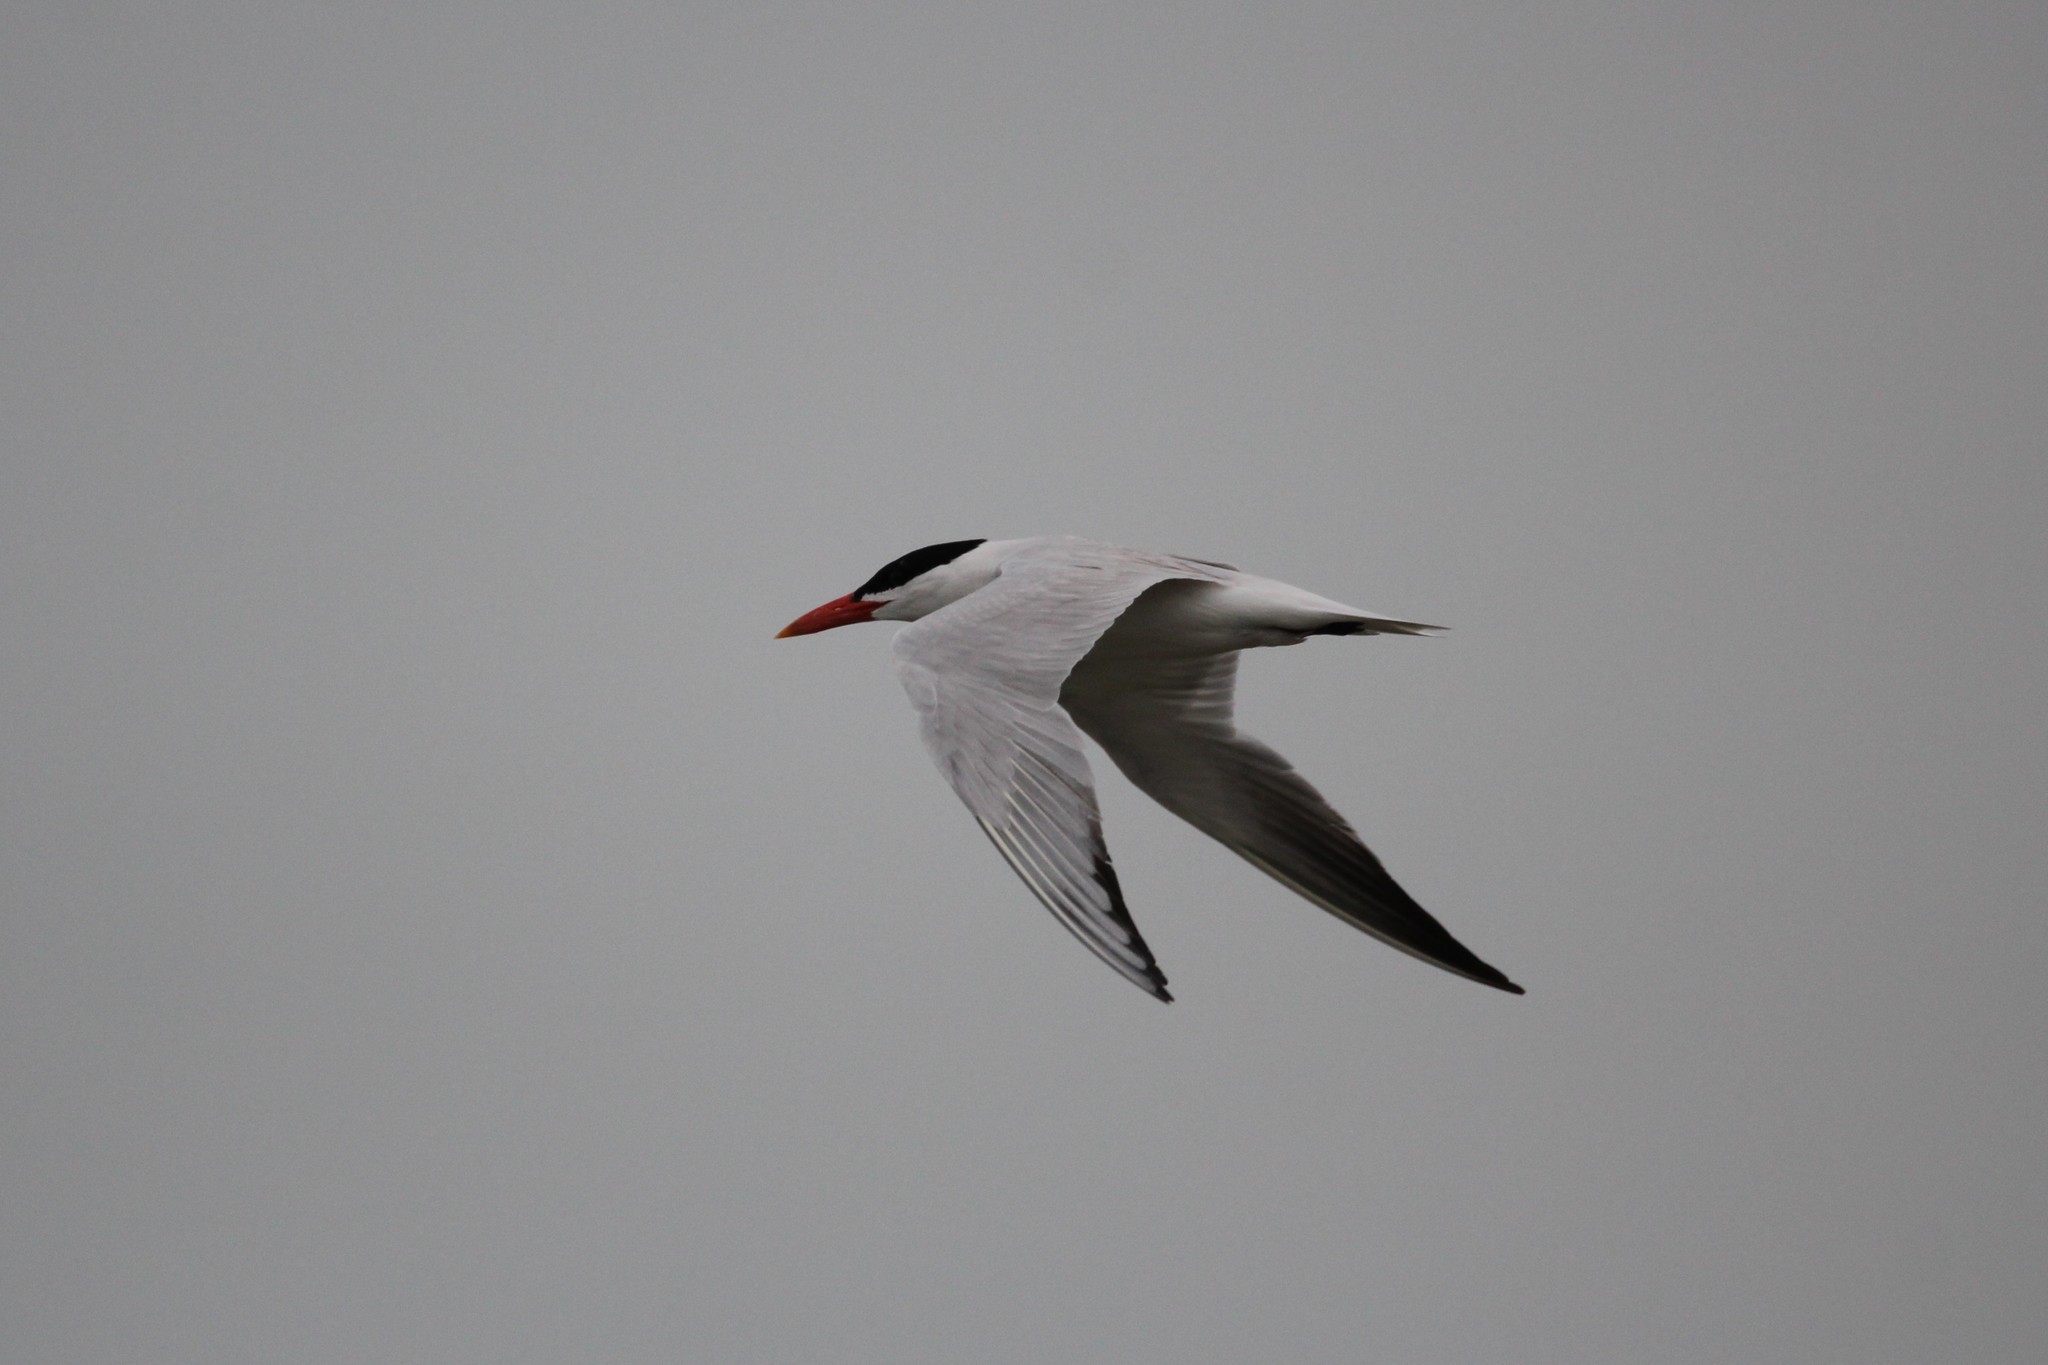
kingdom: Animalia
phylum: Chordata
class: Aves
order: Charadriiformes
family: Laridae
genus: Hydroprogne
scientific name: Hydroprogne caspia
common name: Caspian tern
